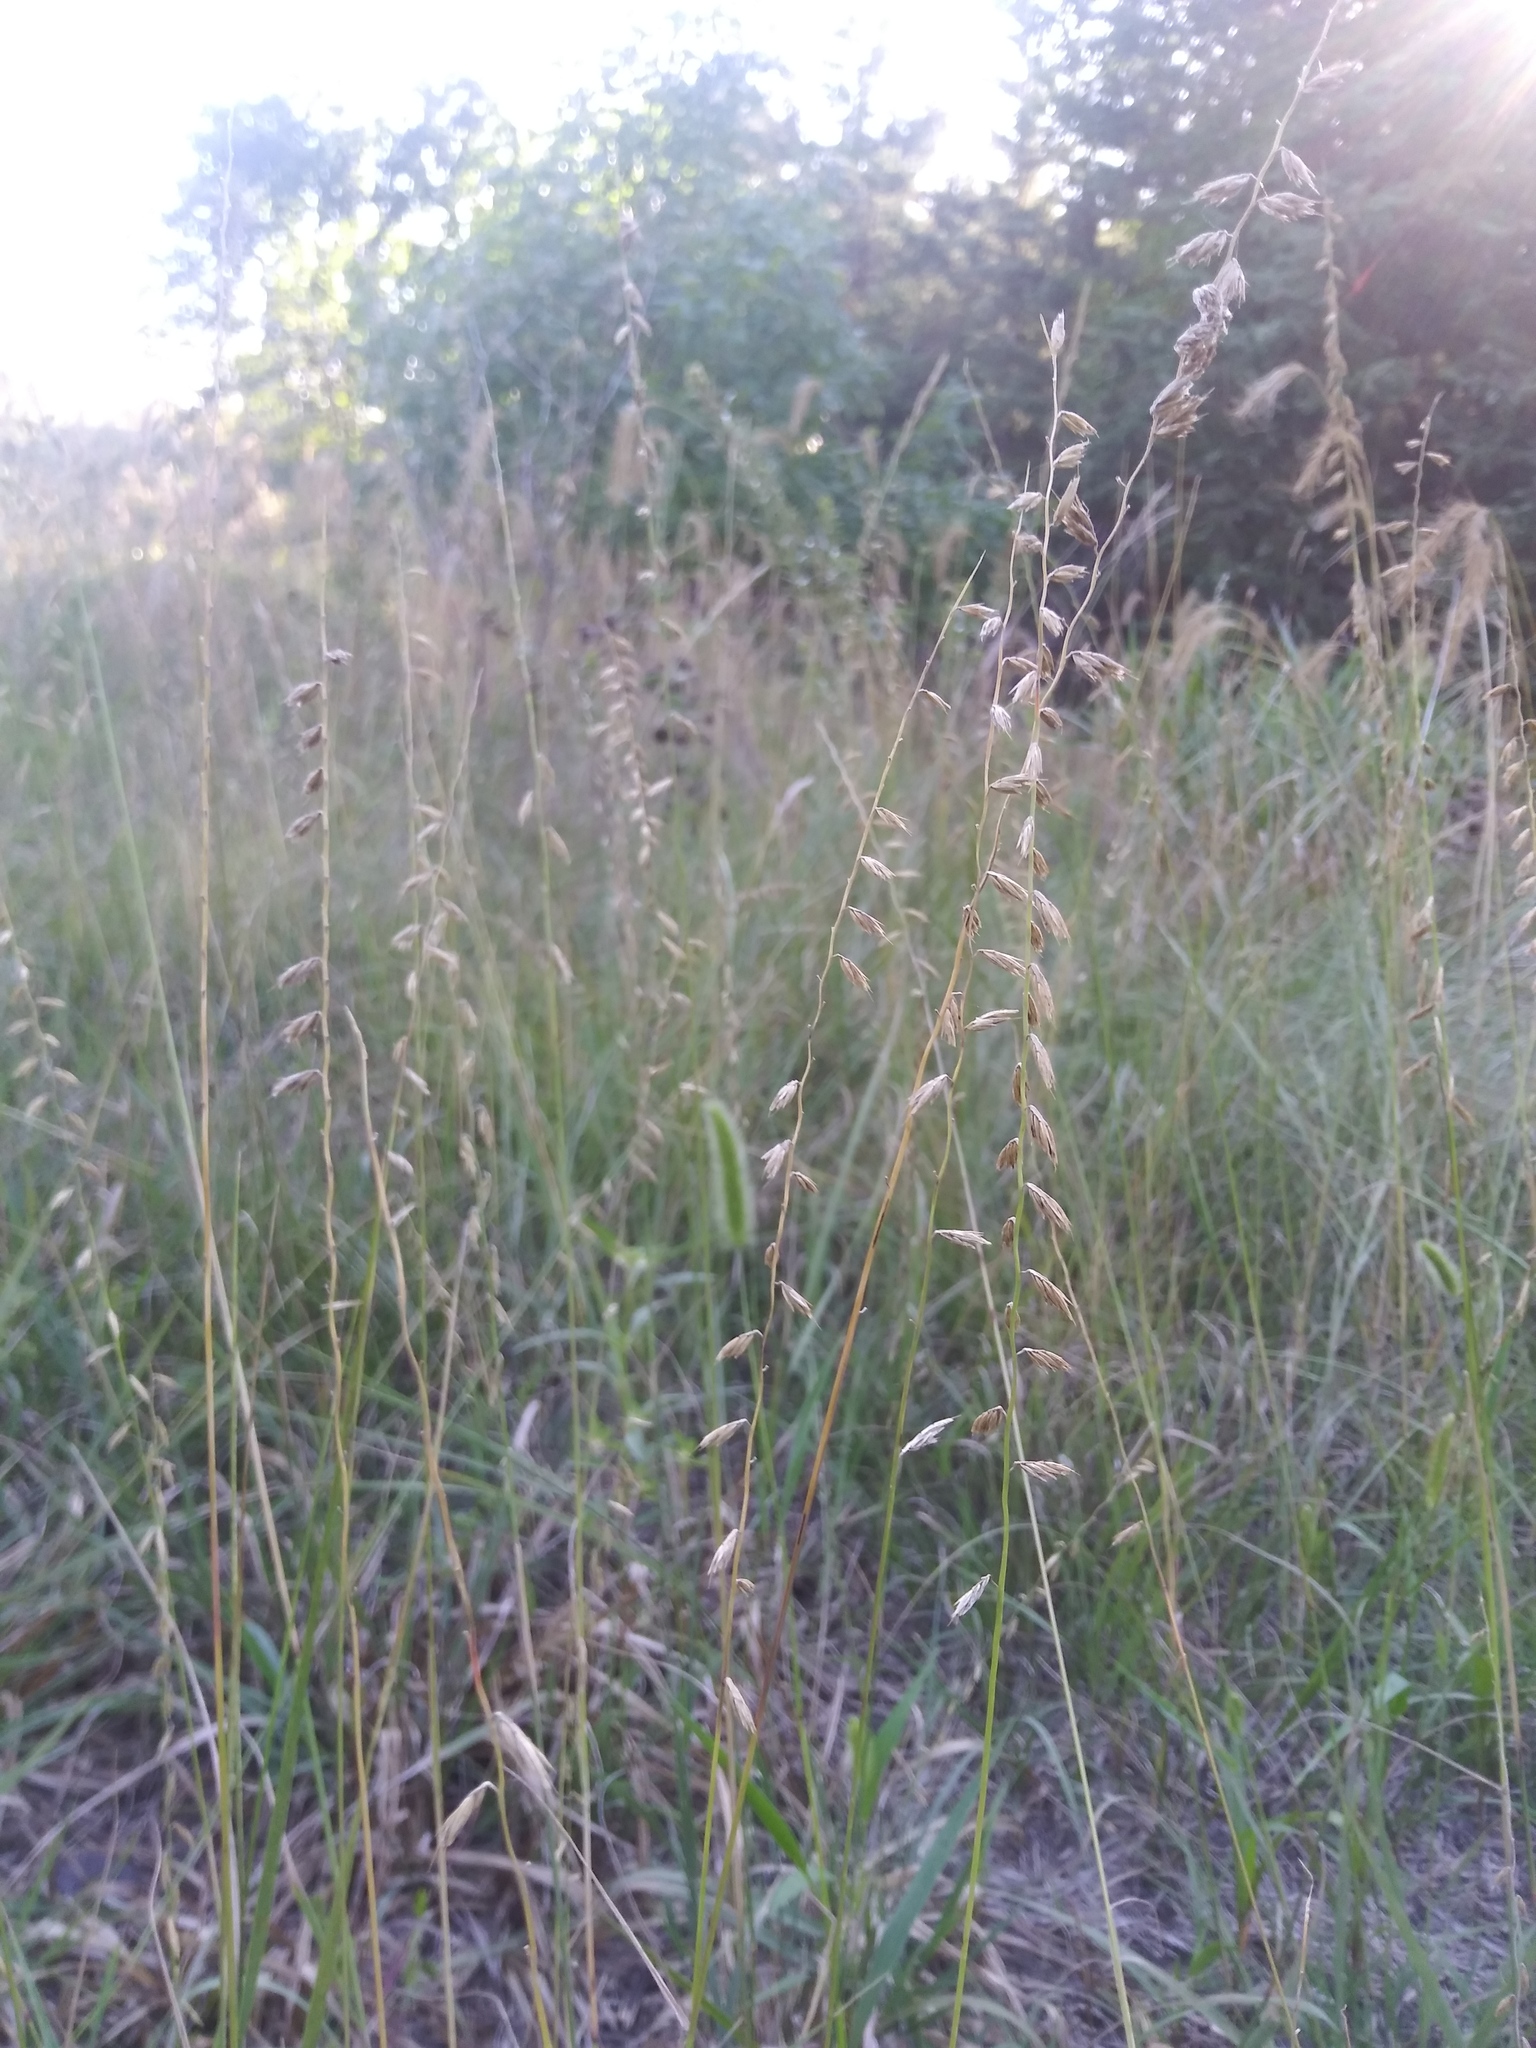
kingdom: Plantae
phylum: Tracheophyta
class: Liliopsida
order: Poales
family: Poaceae
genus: Bouteloua
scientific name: Bouteloua curtipendula
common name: Side-oats grama
